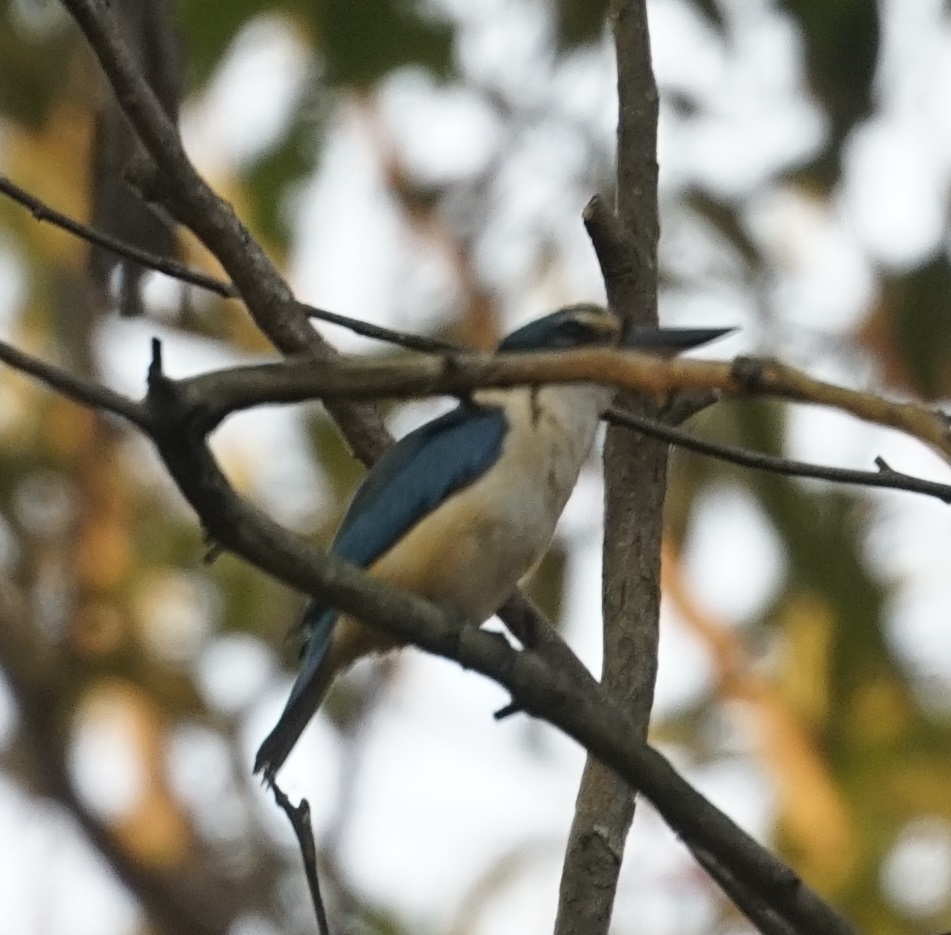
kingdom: Animalia
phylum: Chordata
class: Aves
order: Coraciiformes
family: Alcedinidae
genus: Todiramphus
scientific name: Todiramphus sanctus
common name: Sacred kingfisher
